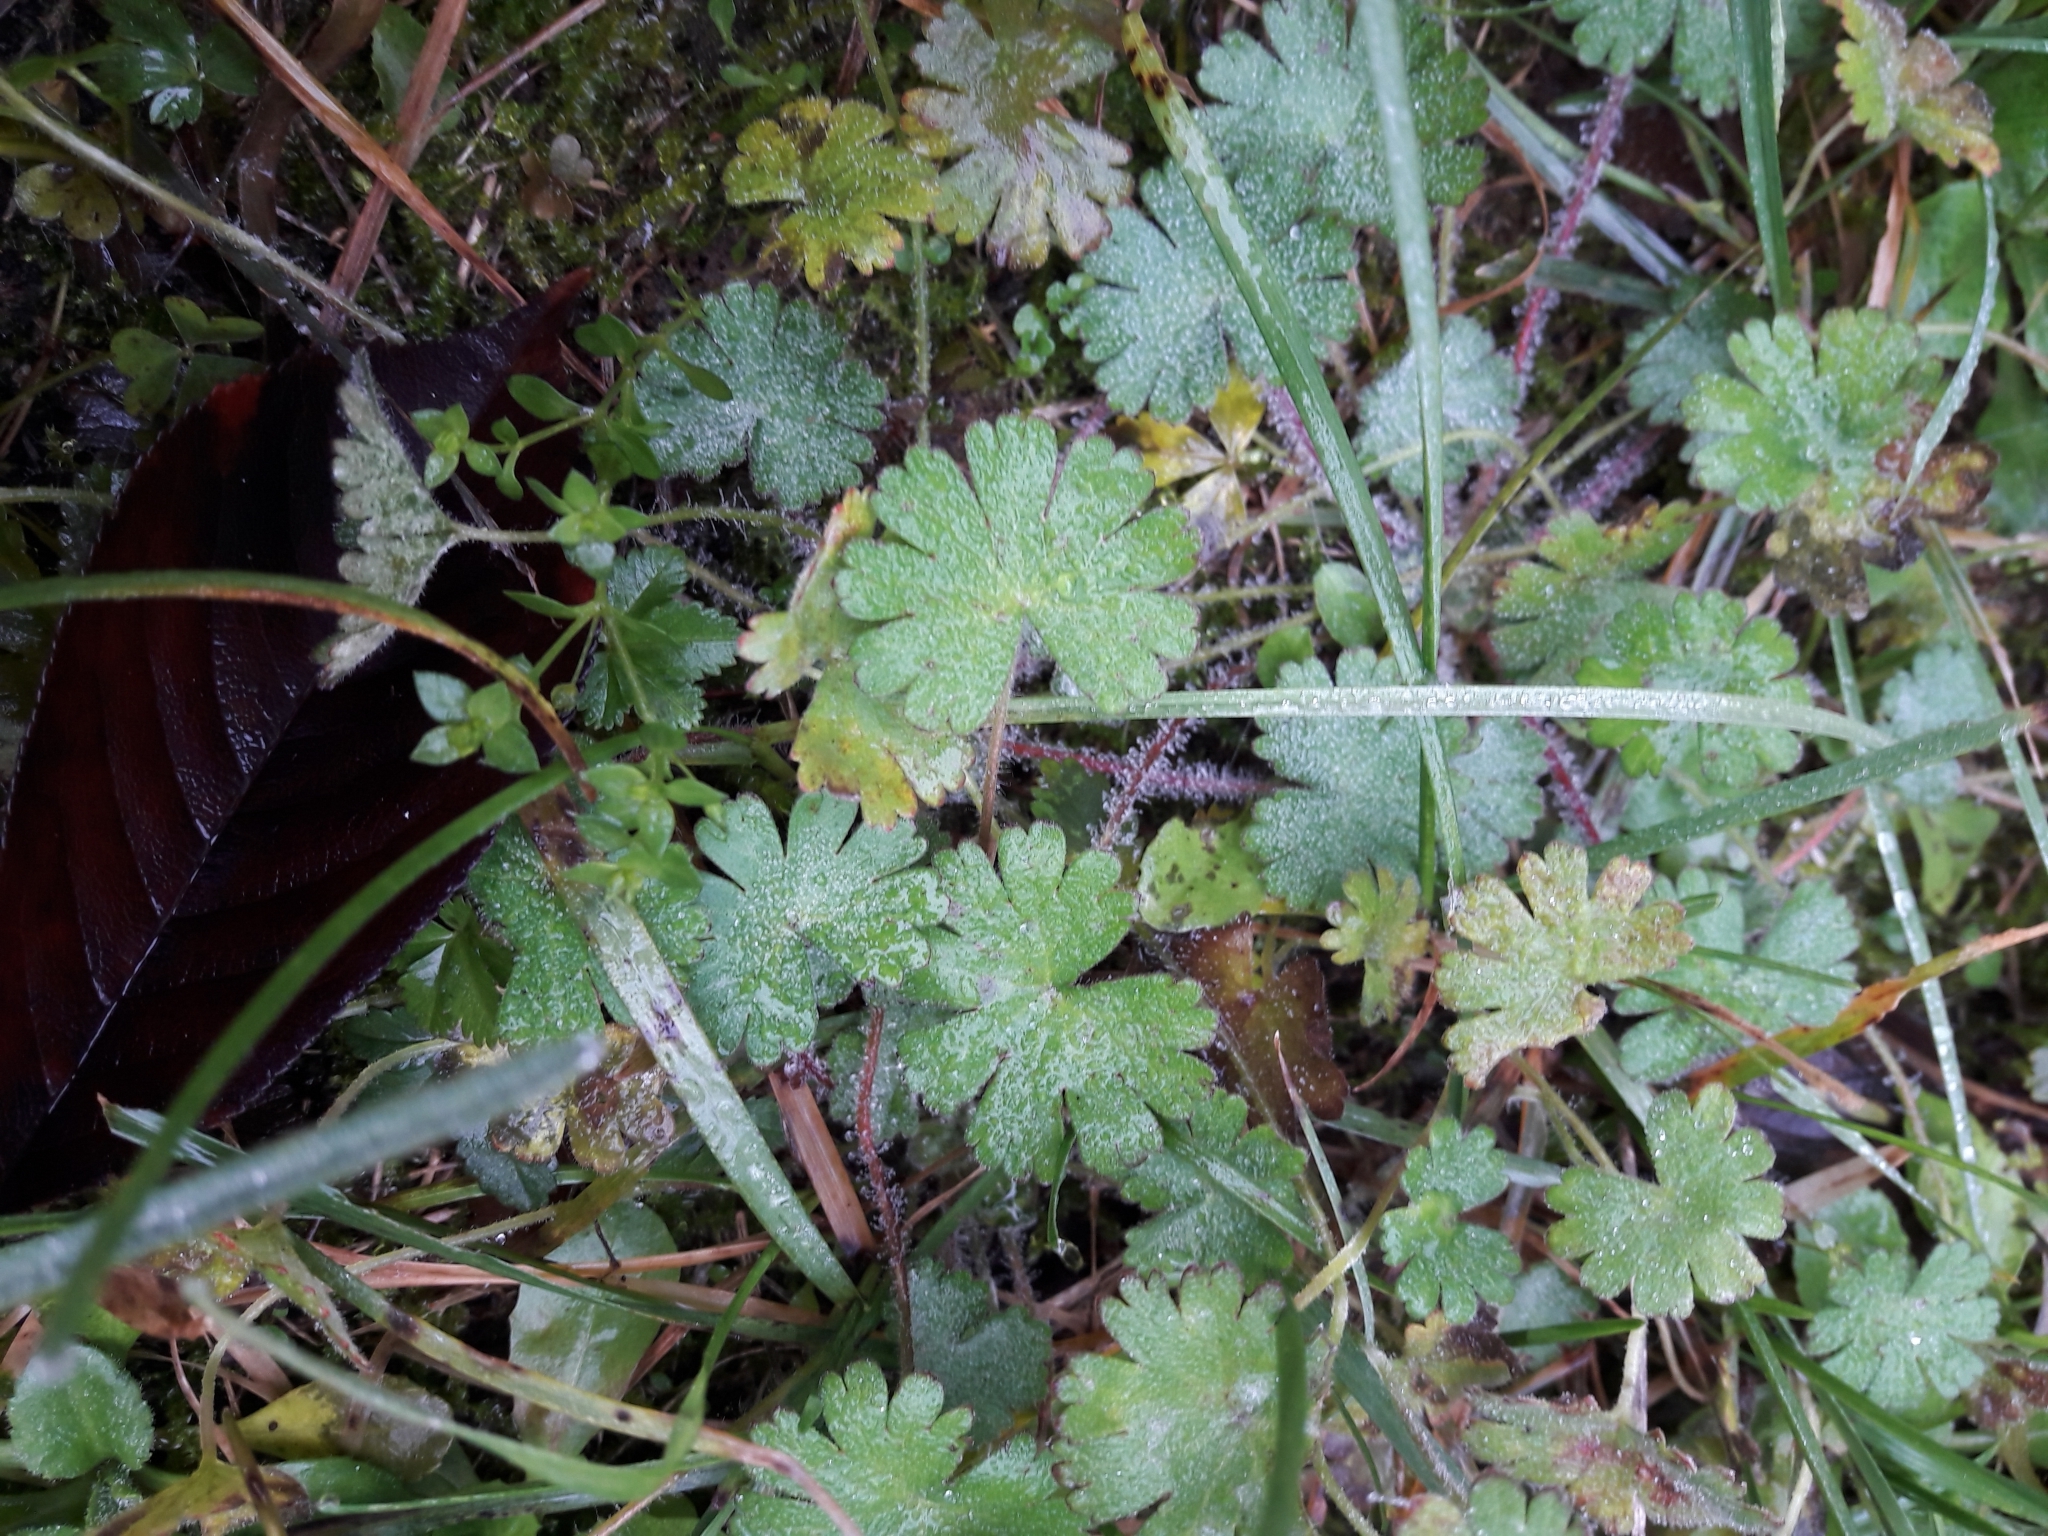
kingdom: Plantae
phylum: Tracheophyta
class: Magnoliopsida
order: Geraniales
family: Geraniaceae
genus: Geranium
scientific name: Geranium molle
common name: Dove's-foot crane's-bill
